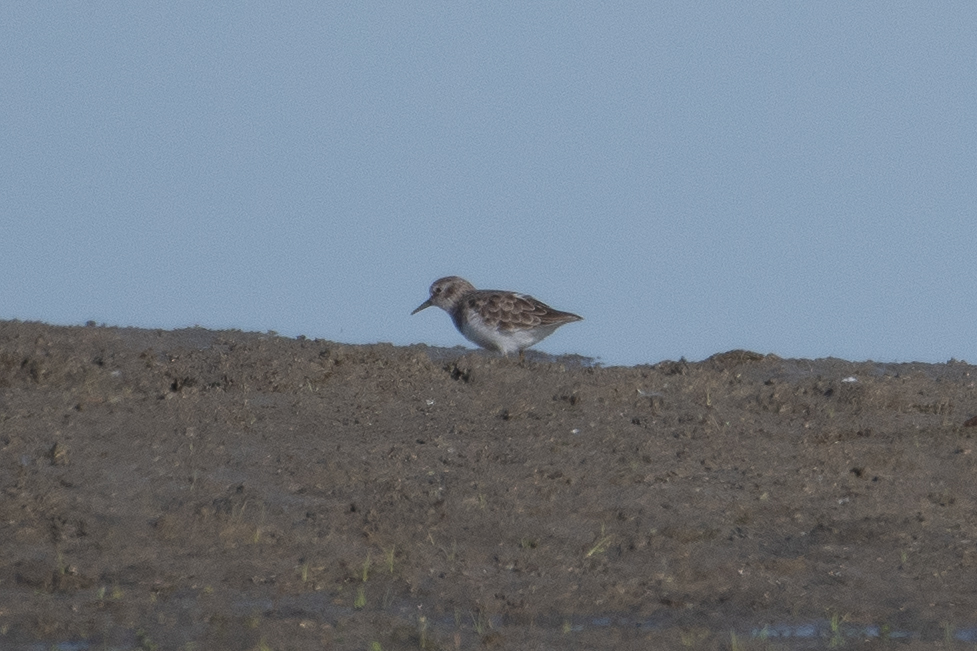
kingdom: Animalia
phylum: Chordata
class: Aves
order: Charadriiformes
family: Scolopacidae
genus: Calidris
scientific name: Calidris minutilla
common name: Least sandpiper
